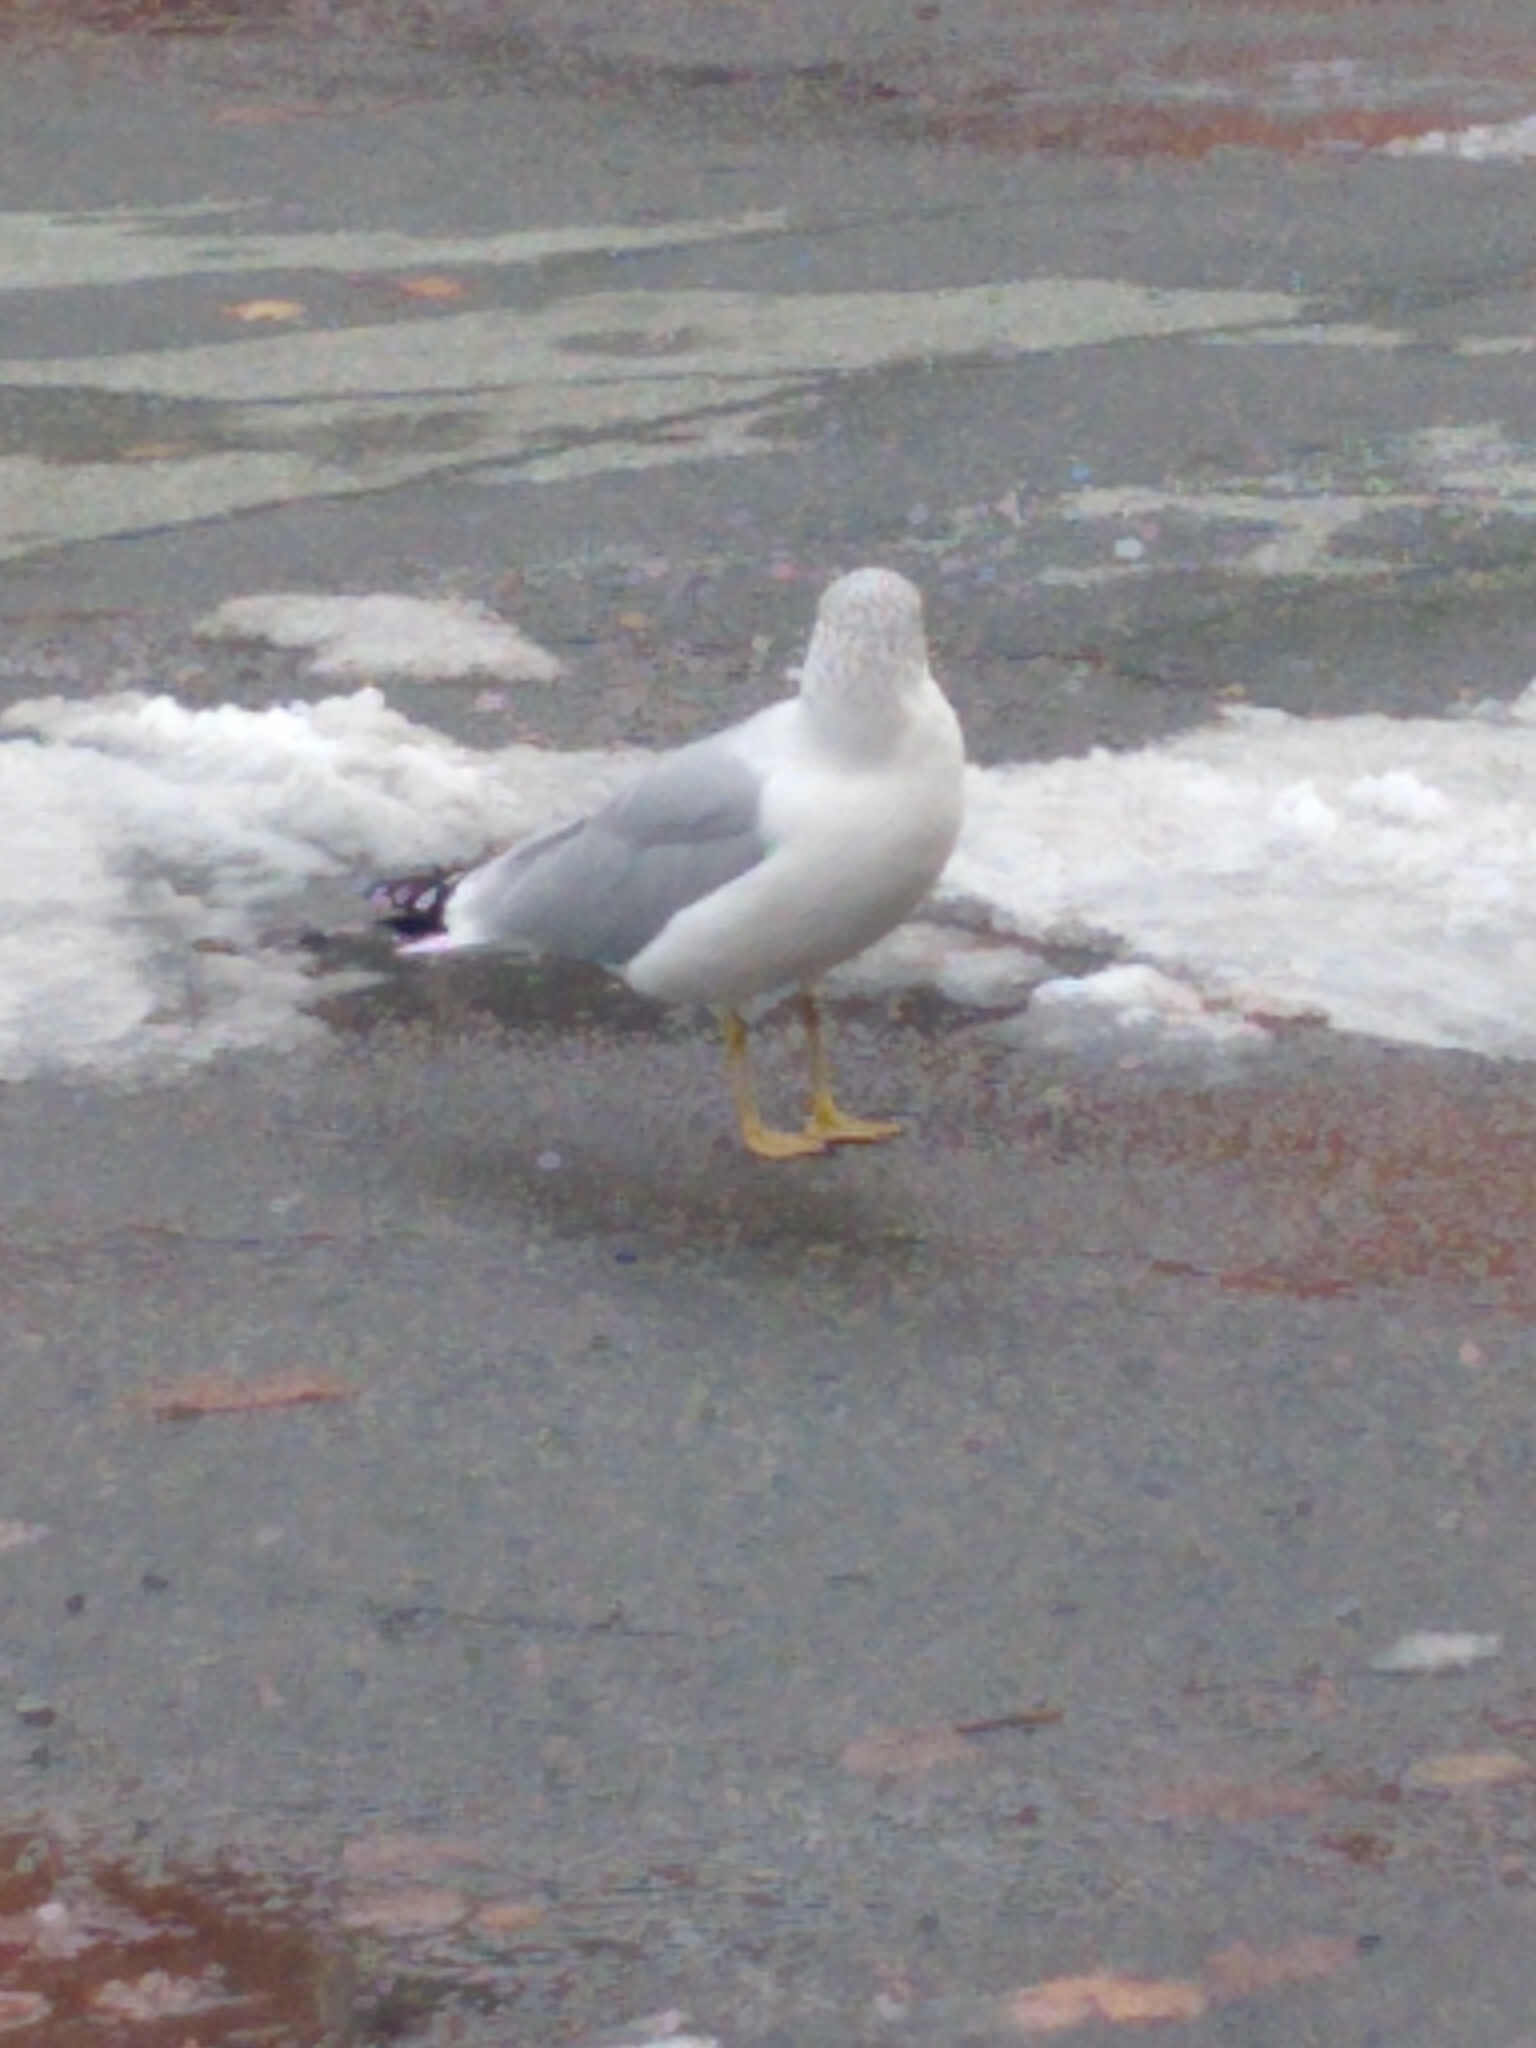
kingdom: Animalia
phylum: Chordata
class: Aves
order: Charadriiformes
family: Laridae
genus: Larus
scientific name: Larus delawarensis
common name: Ring-billed gull
